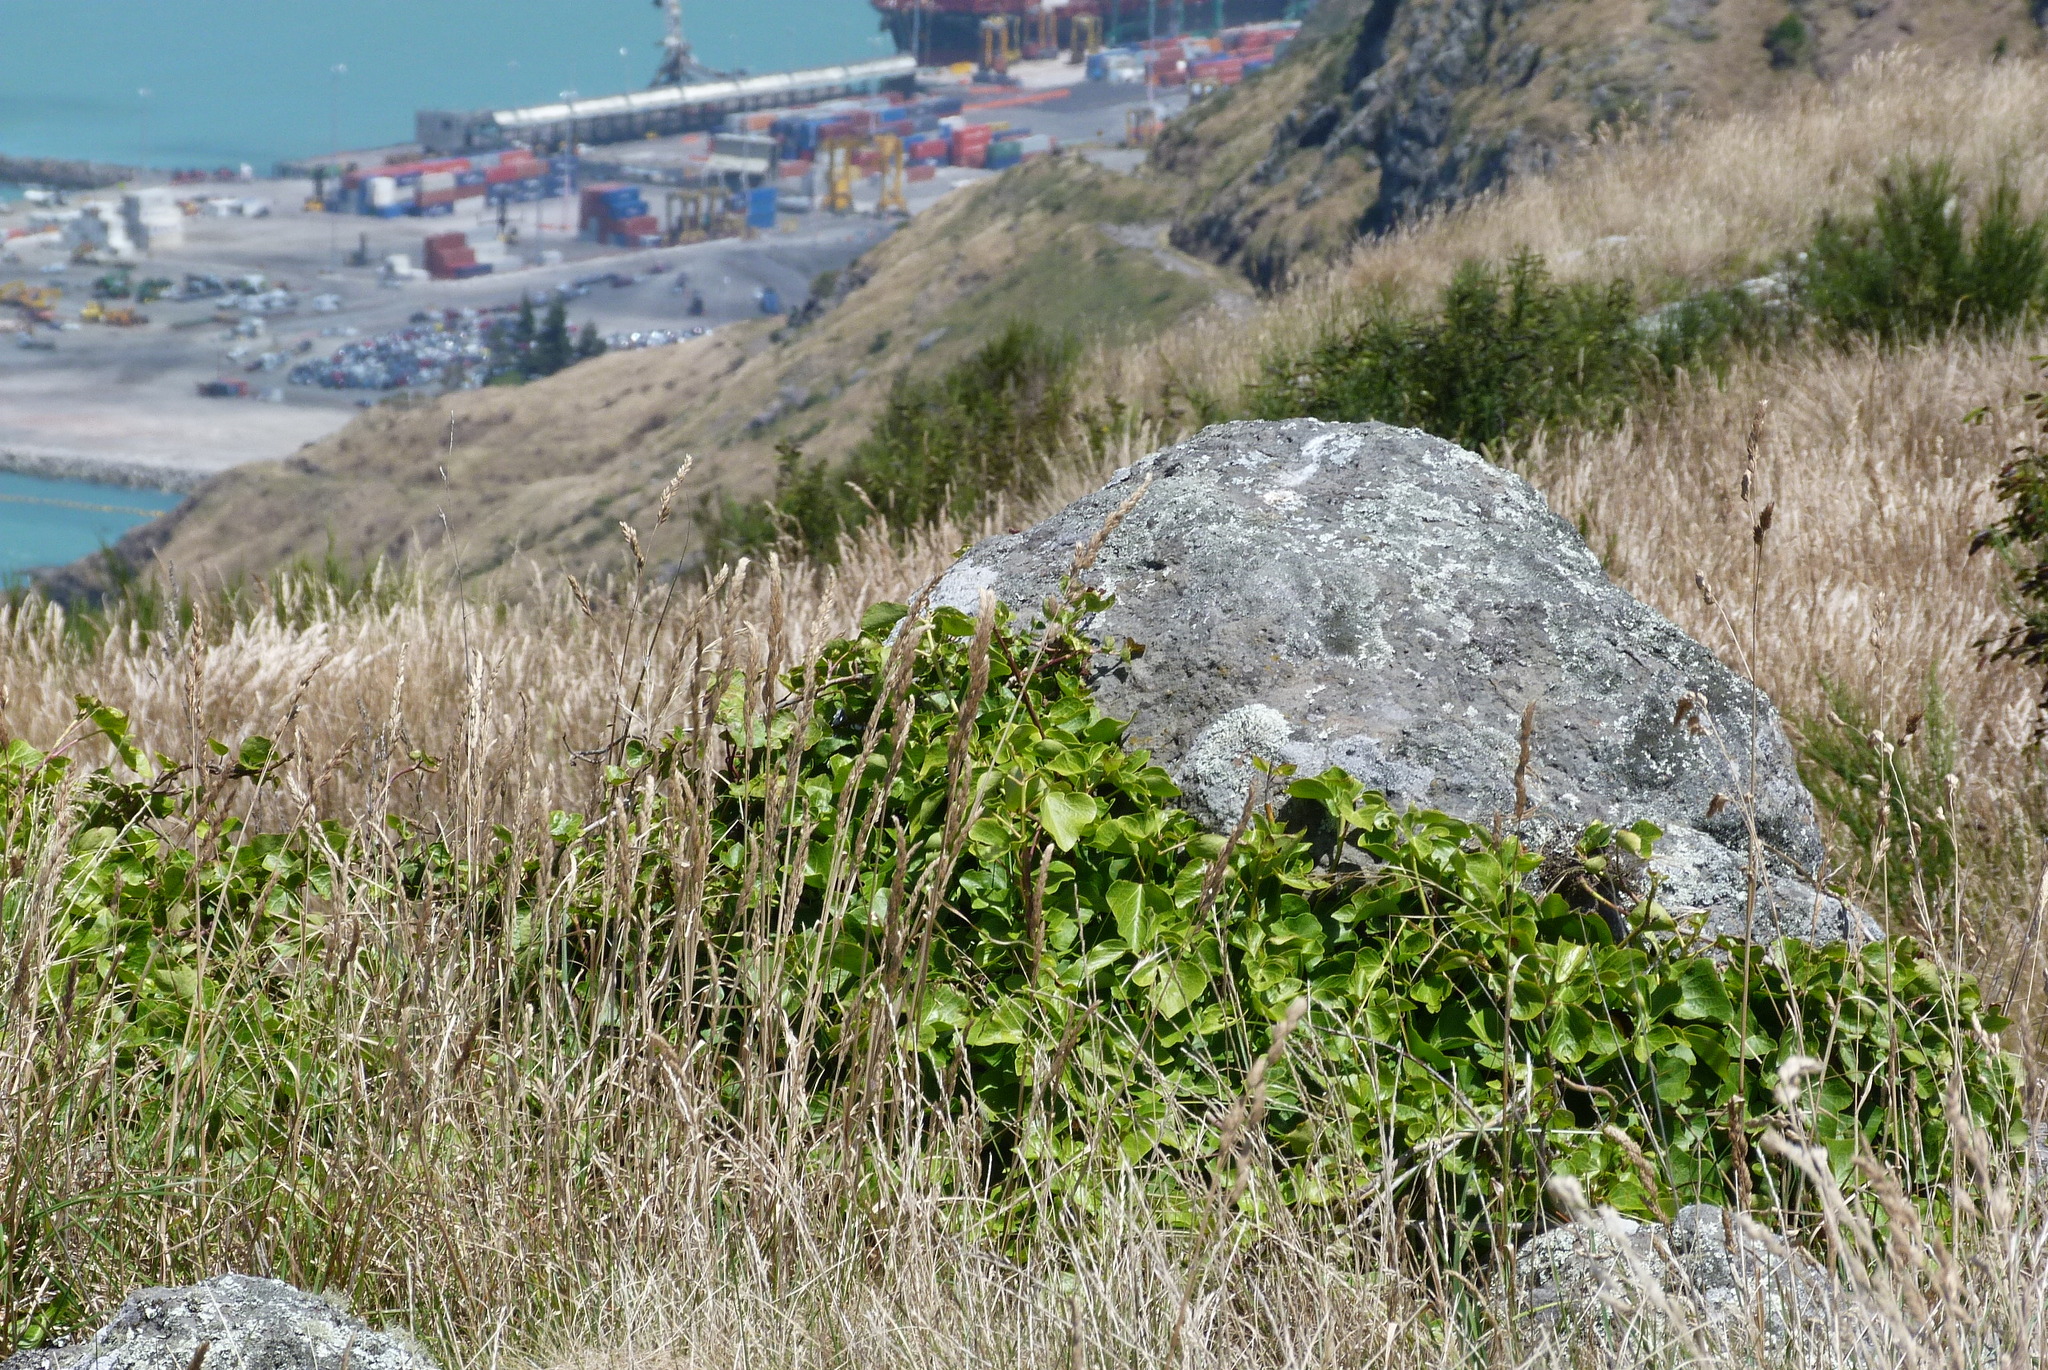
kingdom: Plantae
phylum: Tracheophyta
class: Magnoliopsida
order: Apiales
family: Araliaceae
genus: Hedera
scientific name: Hedera helix
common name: Ivy
